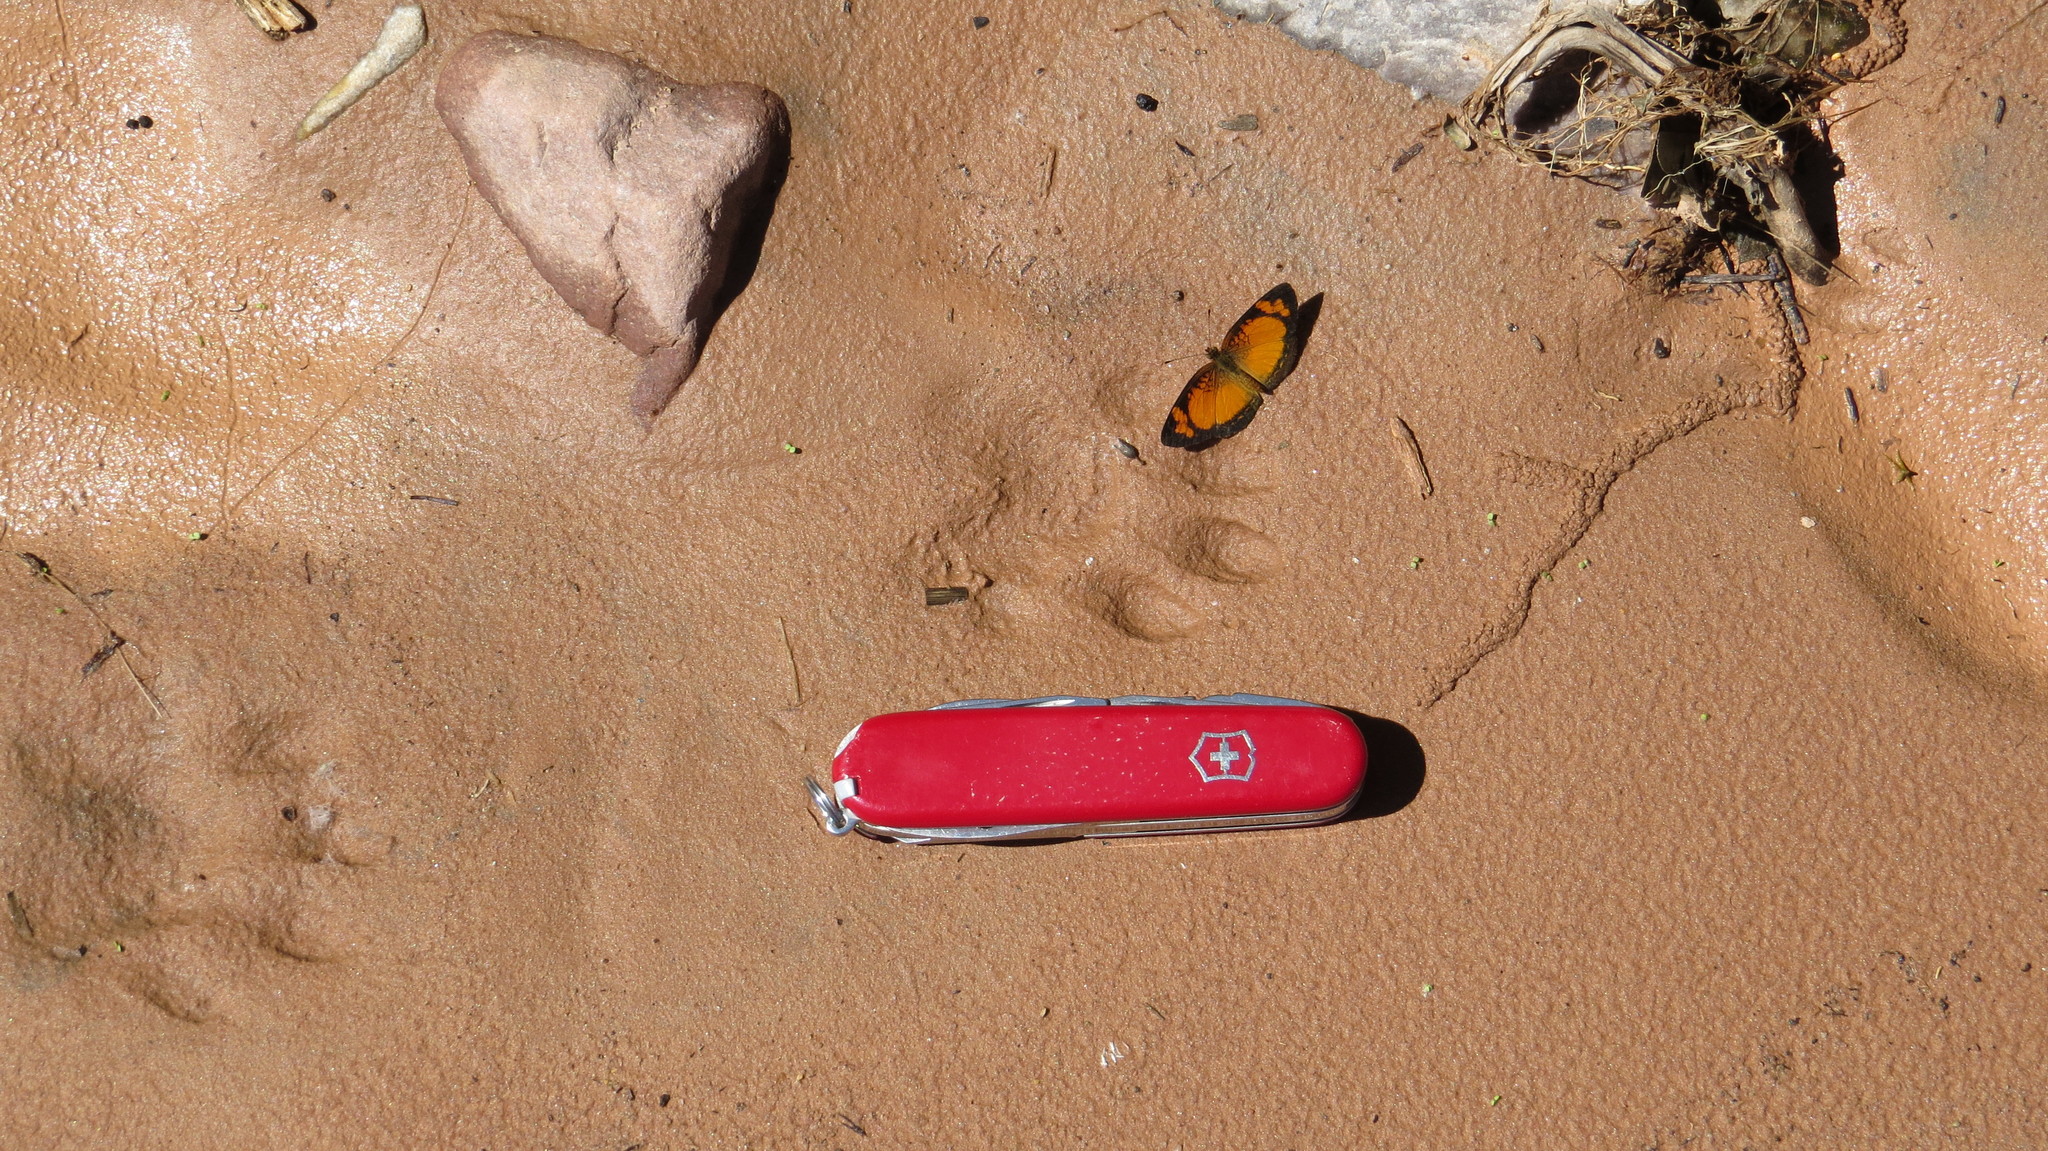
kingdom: Animalia
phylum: Arthropoda
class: Insecta
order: Lepidoptera
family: Nymphalidae
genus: Ortilia
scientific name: Ortilia gentina
